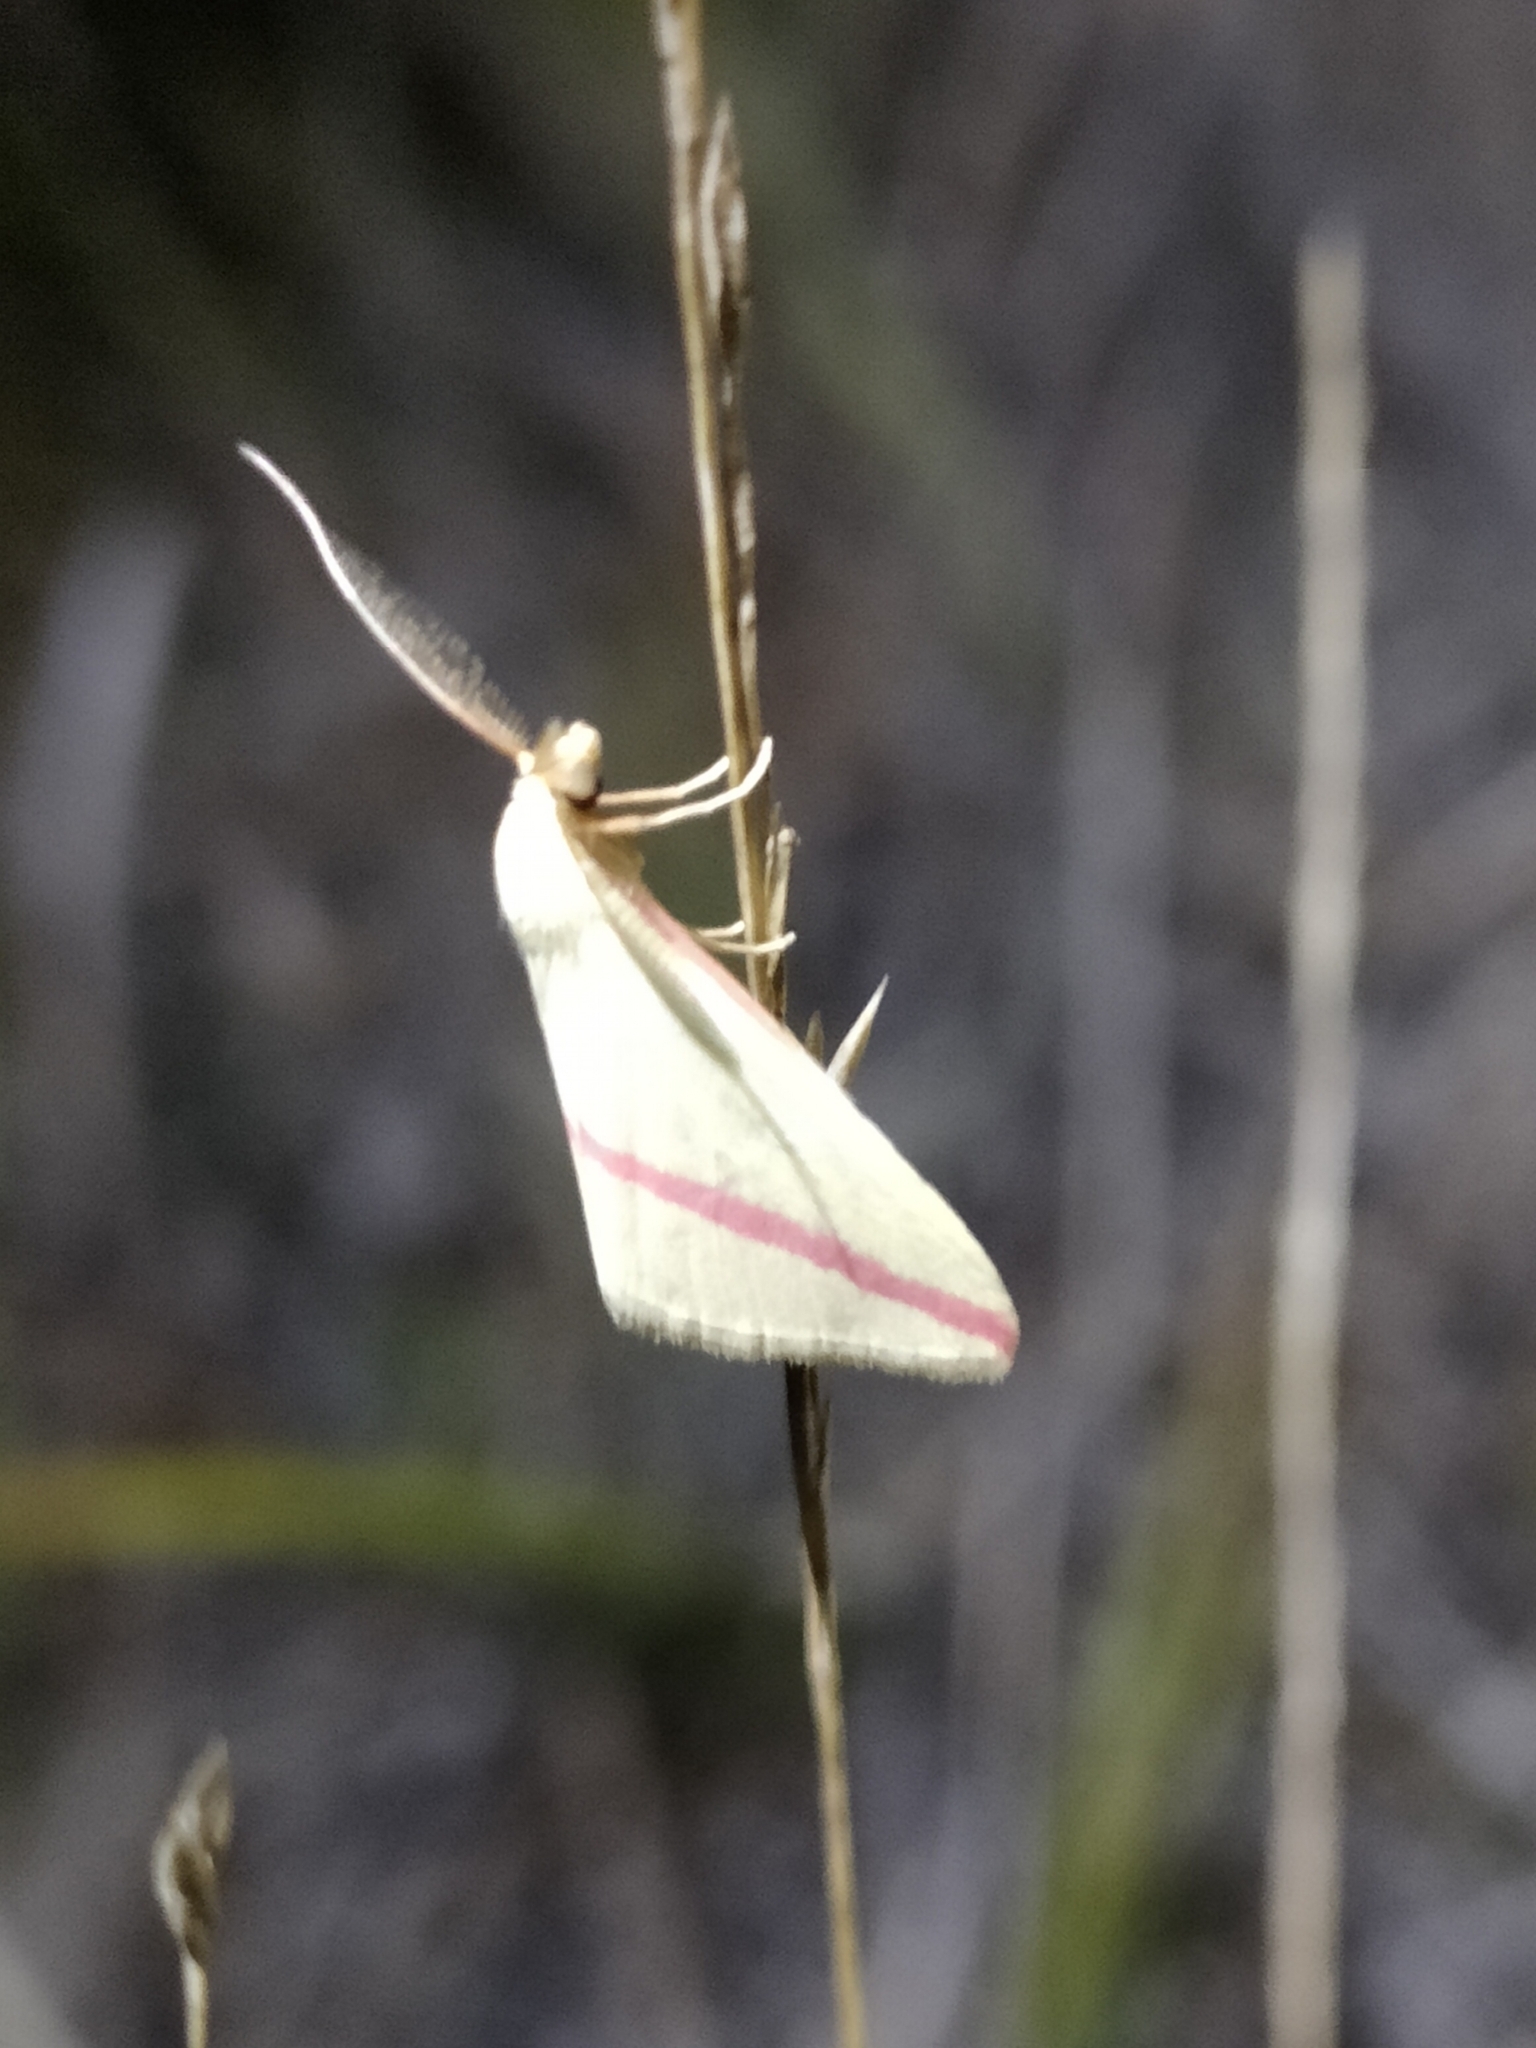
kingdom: Animalia
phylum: Arthropoda
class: Insecta
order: Lepidoptera
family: Geometridae
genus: Rhodometra
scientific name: Rhodometra sacraria
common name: Vestal
